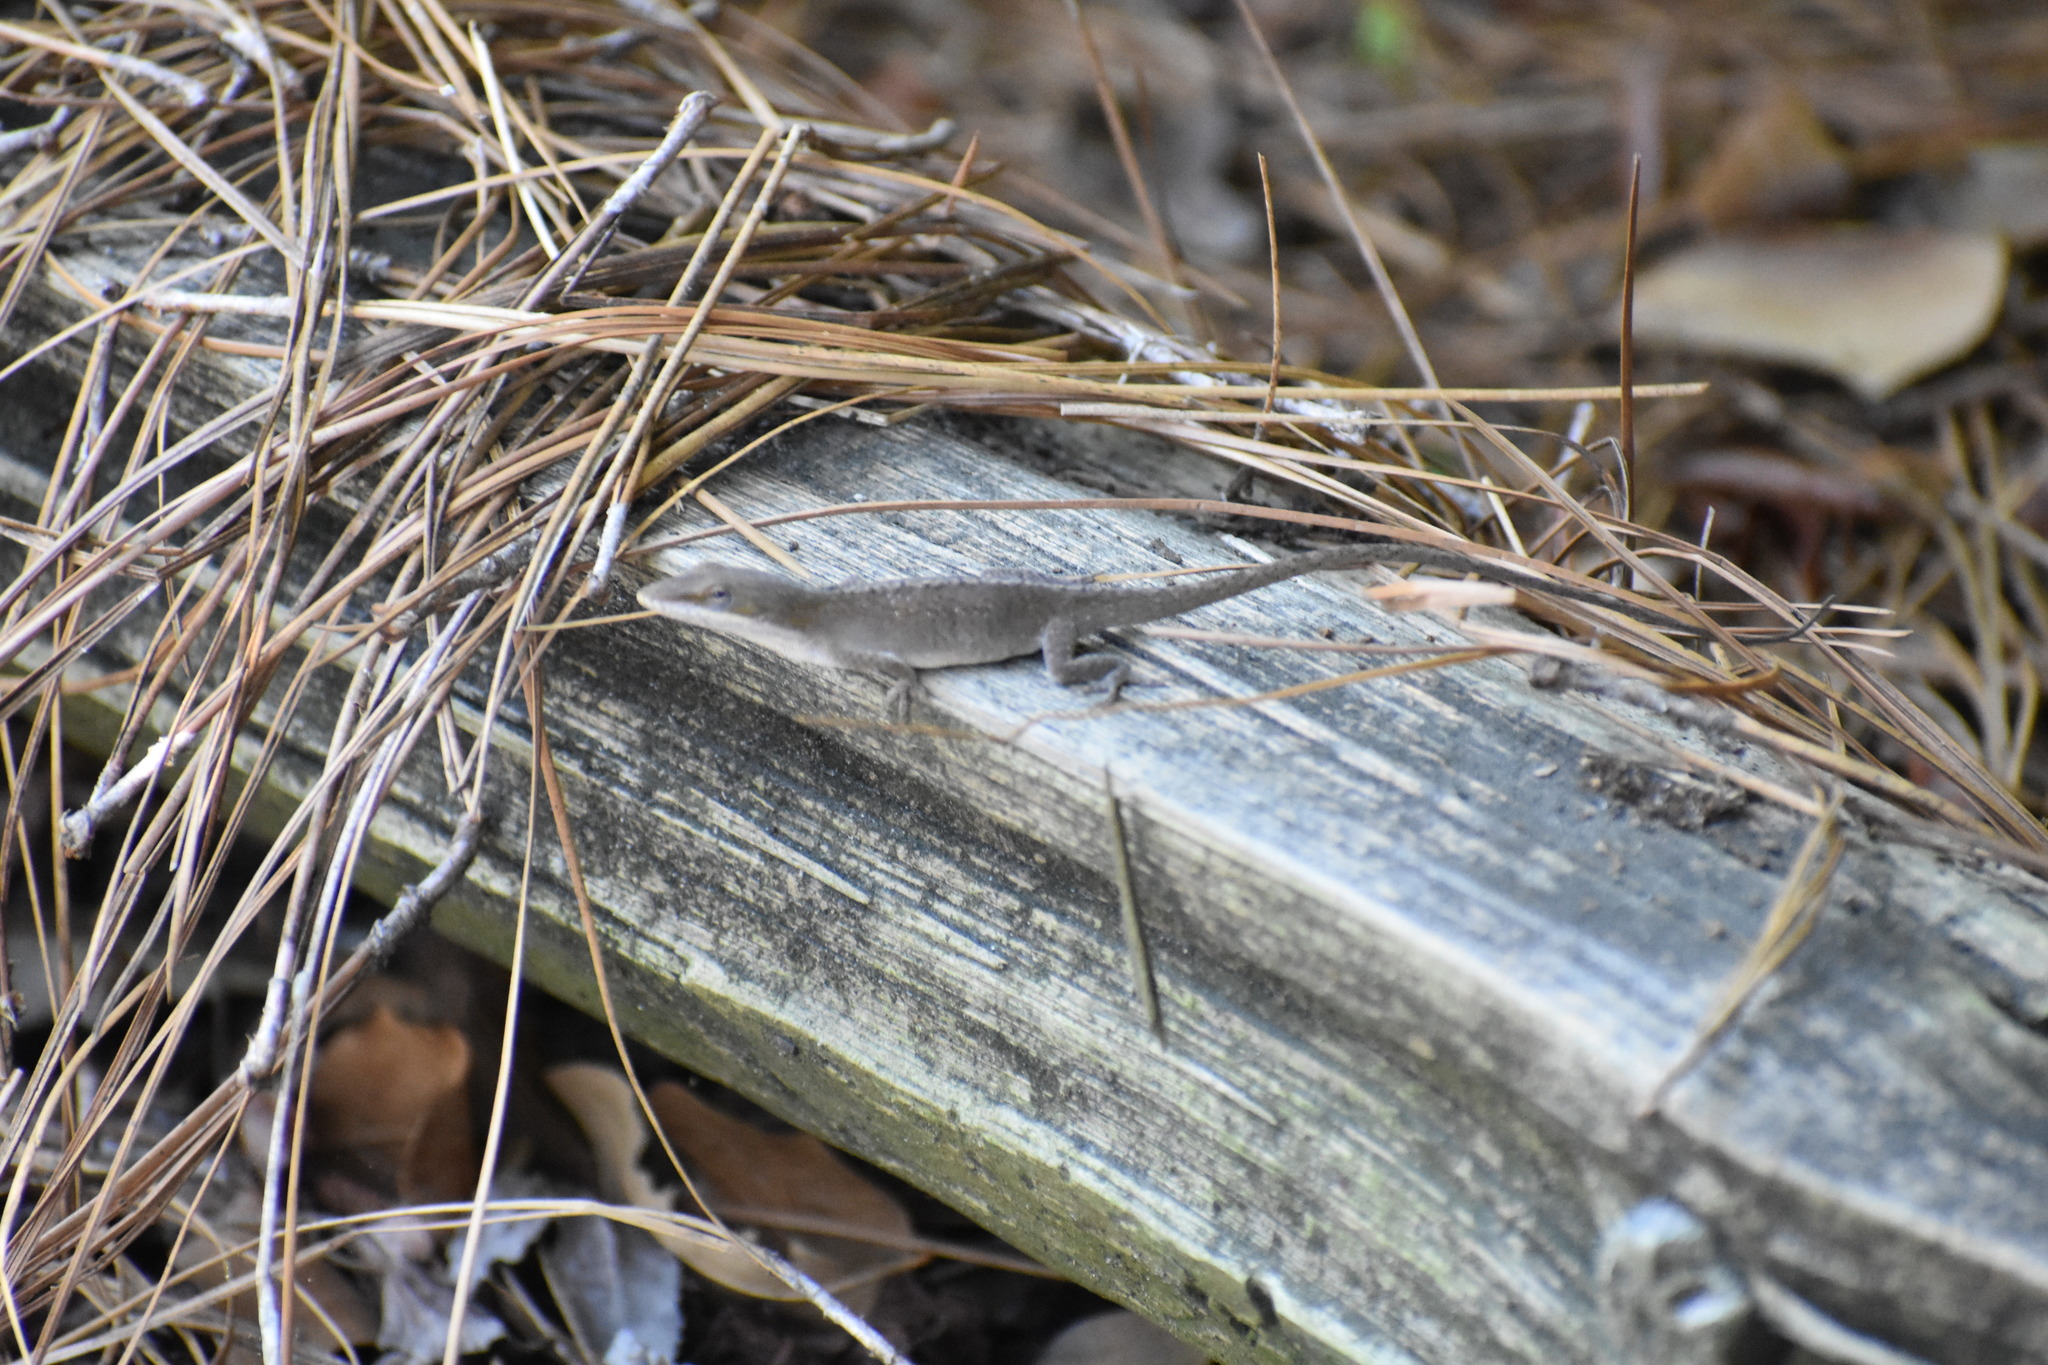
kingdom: Animalia
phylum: Chordata
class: Squamata
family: Dactyloidae
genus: Anolis
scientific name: Anolis carolinensis
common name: Green anole
